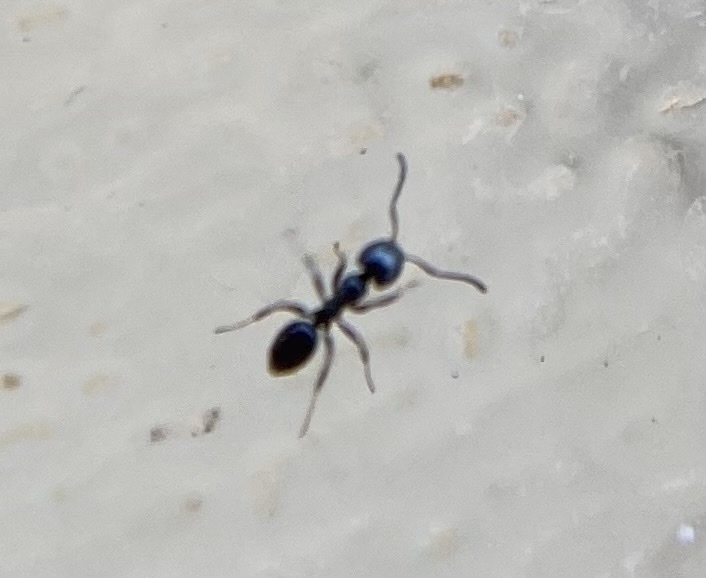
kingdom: Animalia
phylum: Arthropoda
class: Insecta
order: Hymenoptera
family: Formicidae
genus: Ochetellus
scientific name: Ochetellus glaber
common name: Ant
